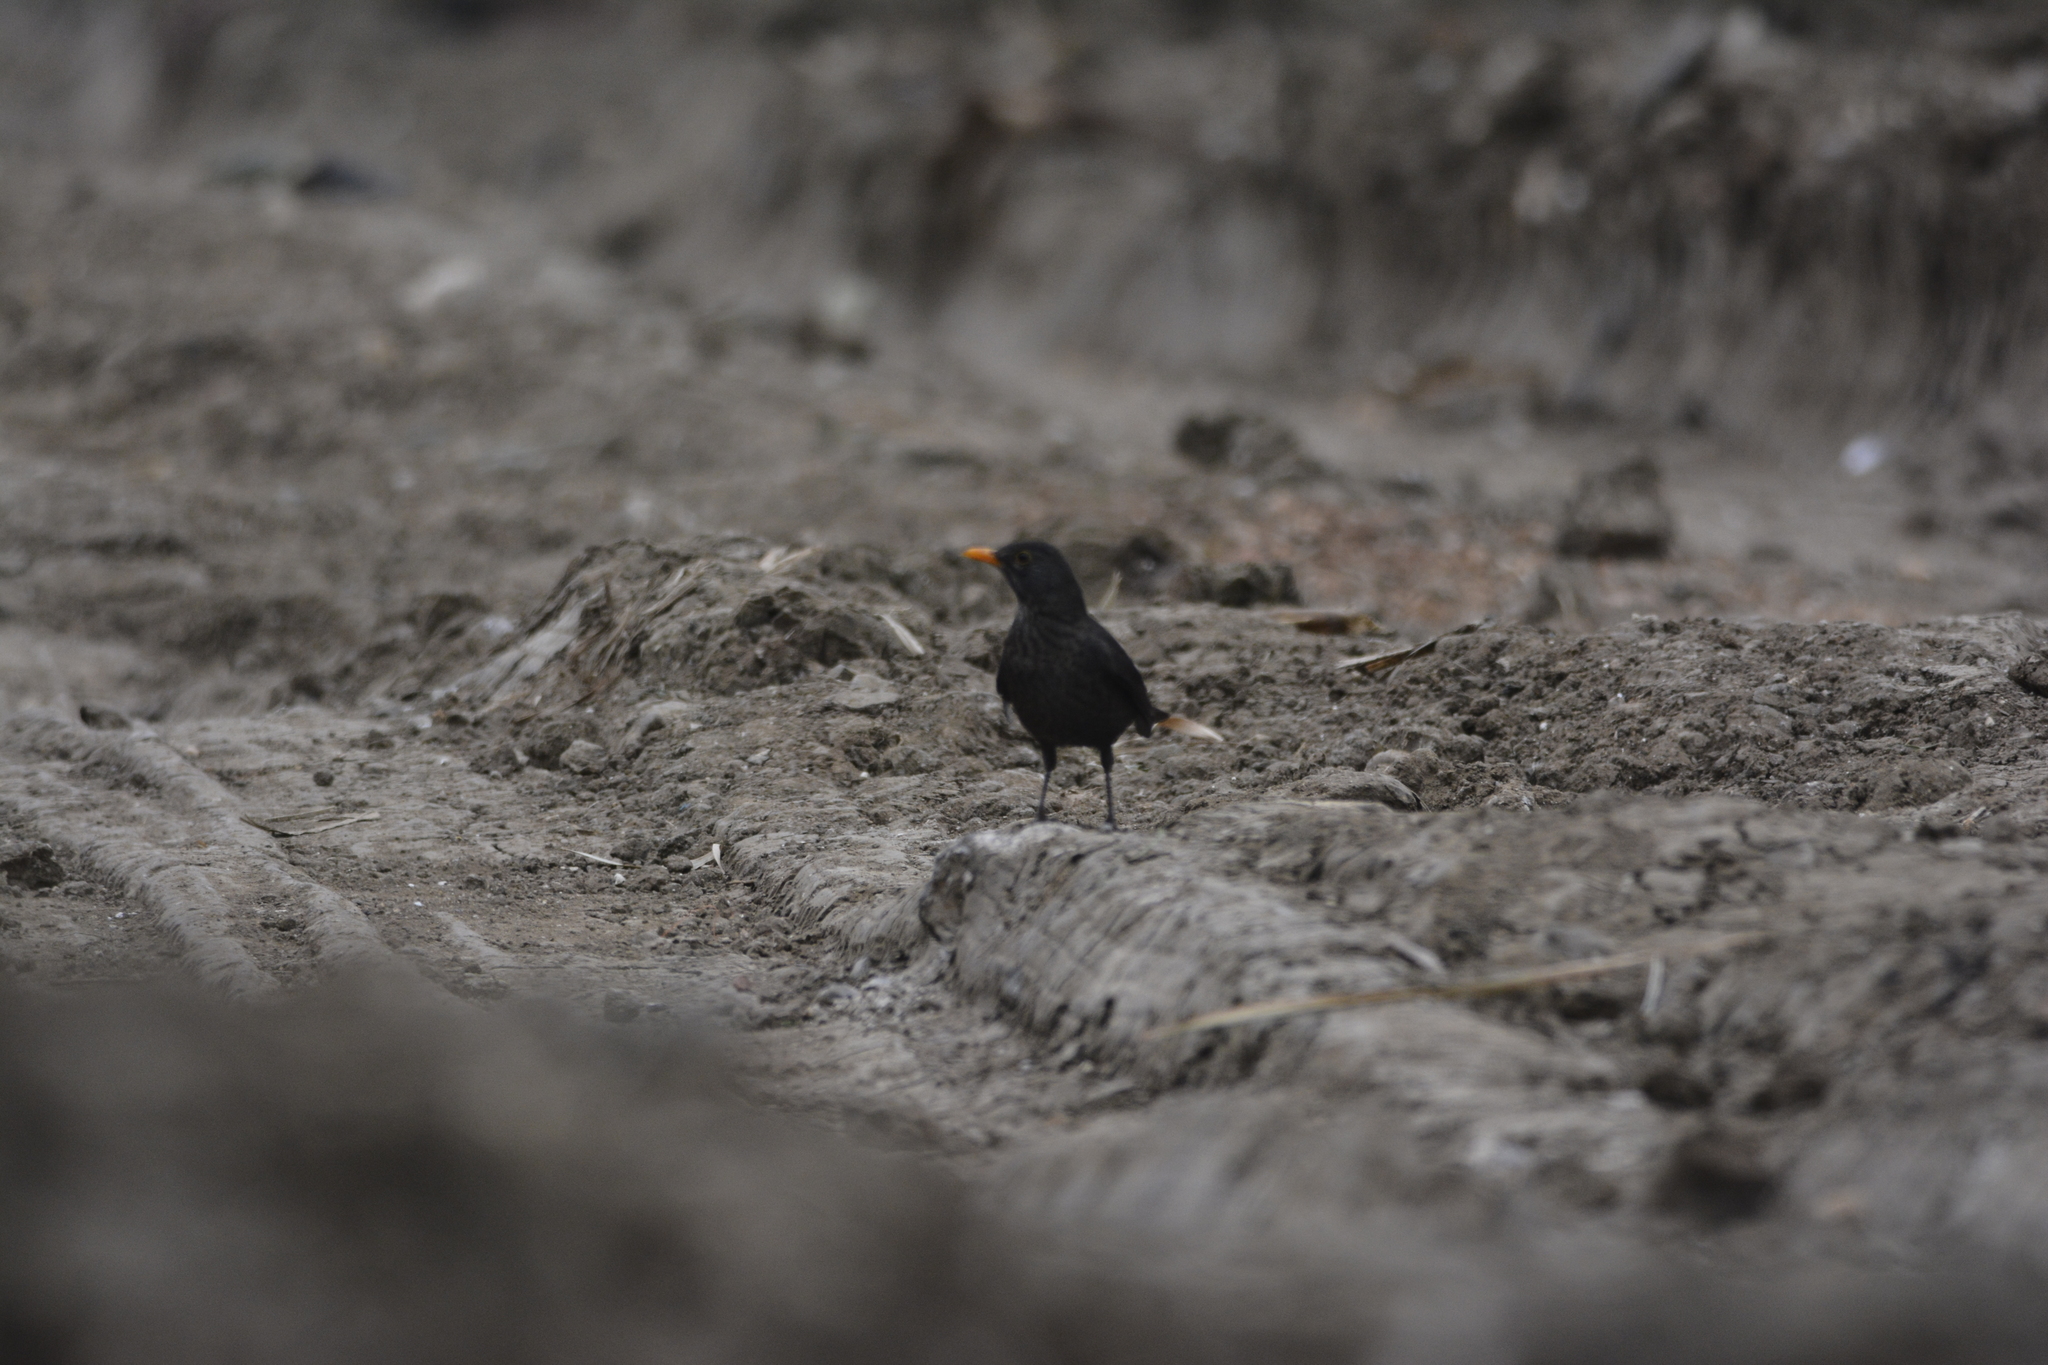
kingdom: Animalia
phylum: Chordata
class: Aves
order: Passeriformes
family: Turdidae
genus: Turdus
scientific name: Turdus merula
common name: Common blackbird
